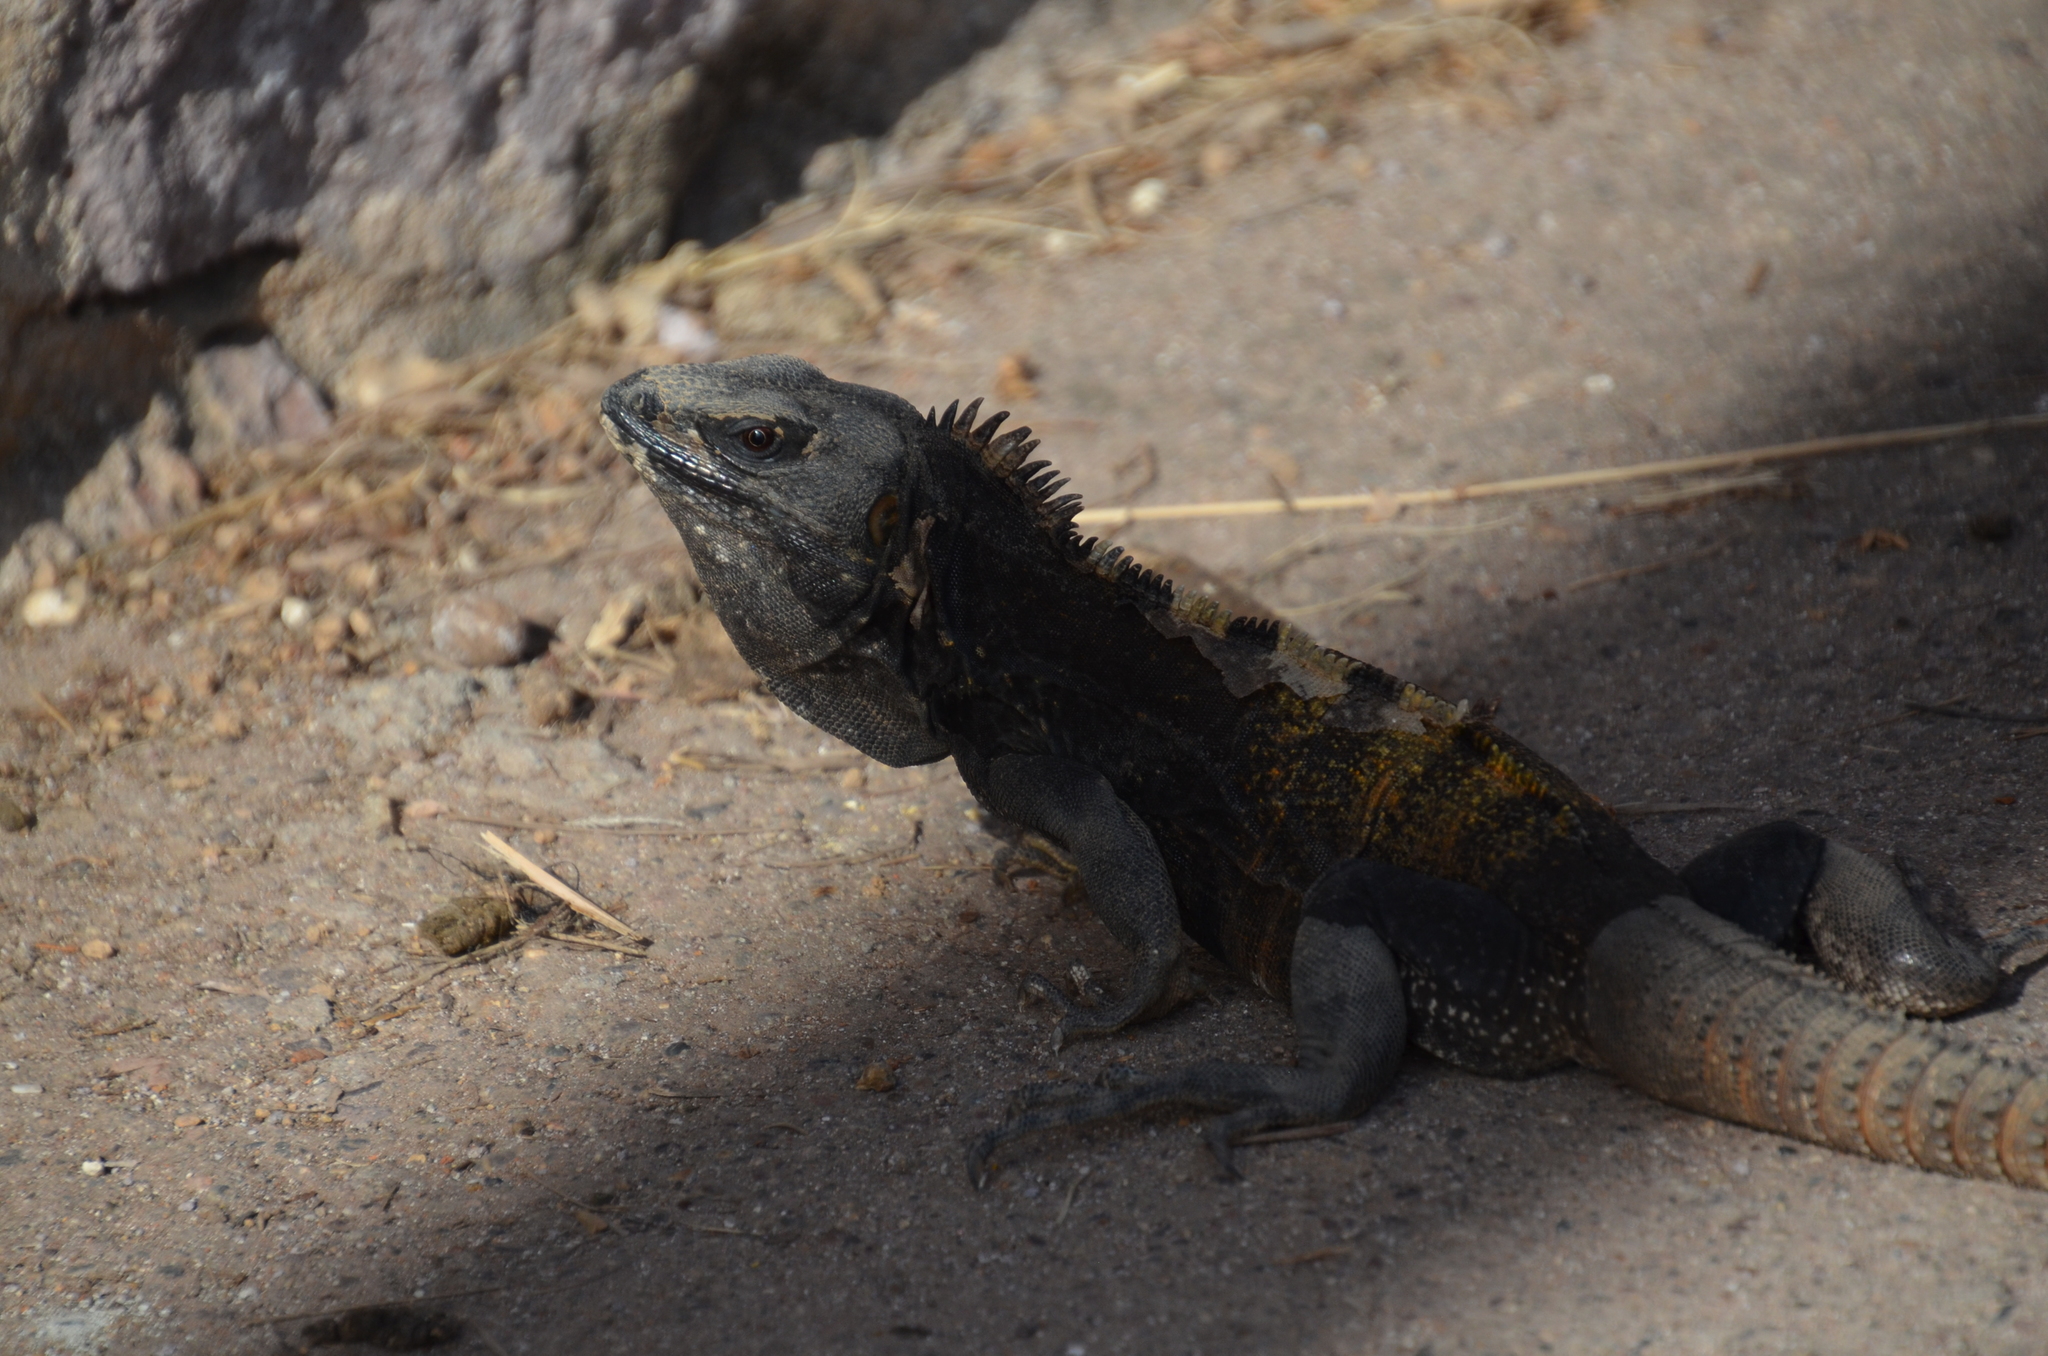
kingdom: Animalia
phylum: Chordata
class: Squamata
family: Iguanidae
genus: Ctenosaura
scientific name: Ctenosaura pectinata
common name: Guerreran spiny-tailed iguana
